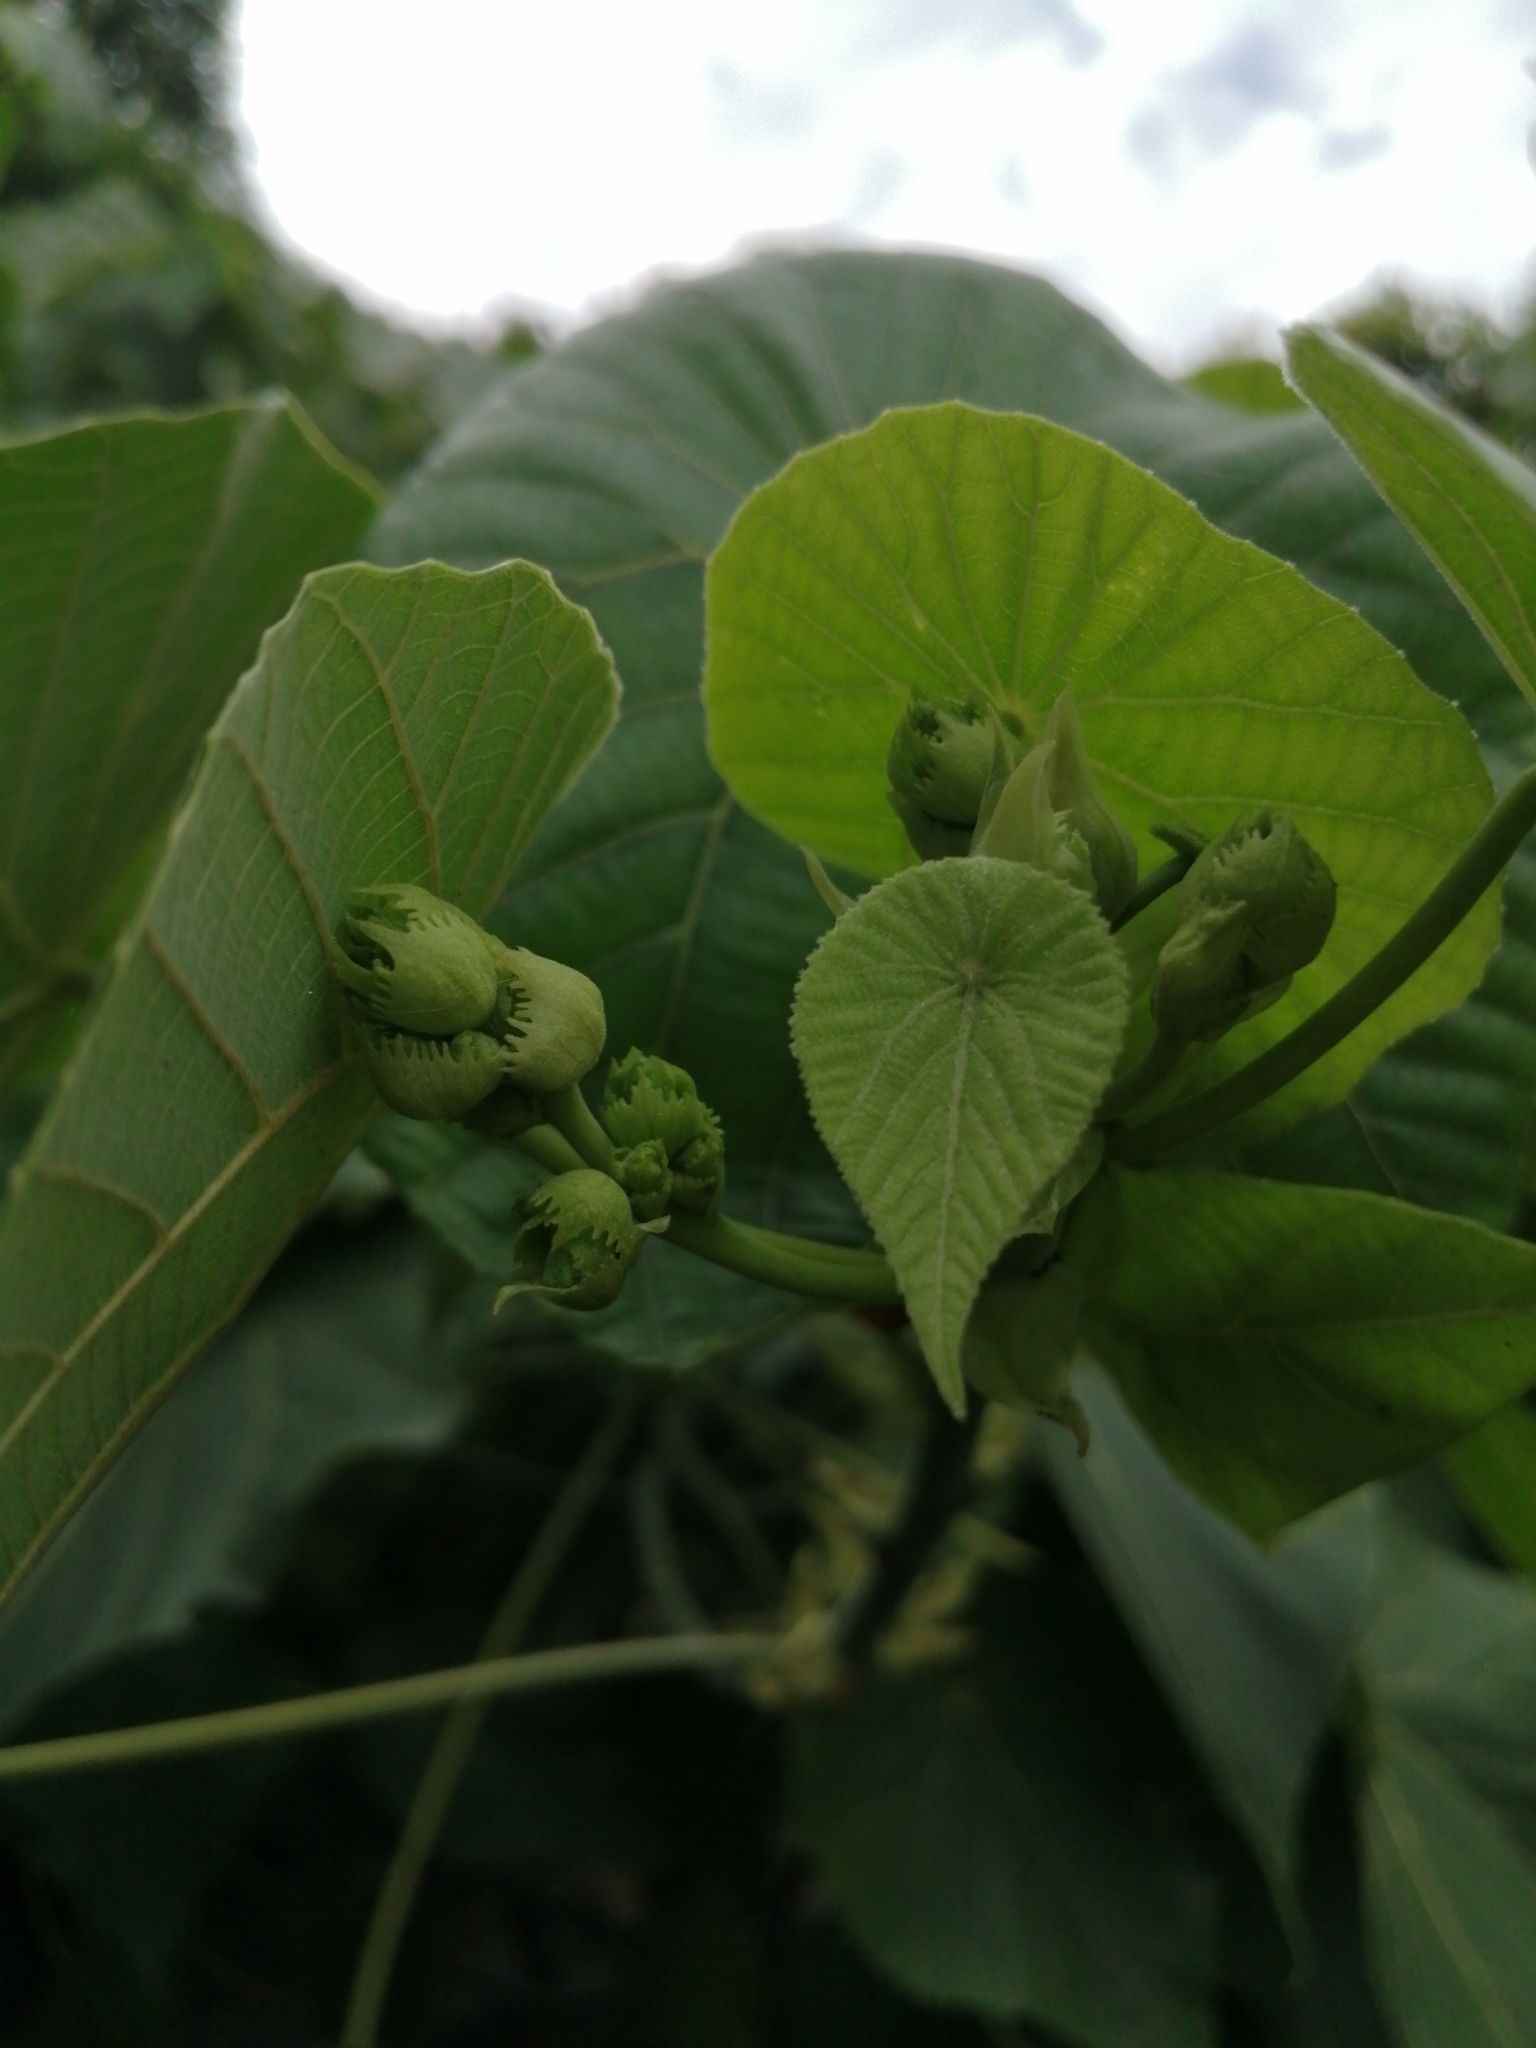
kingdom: Plantae
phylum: Tracheophyta
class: Magnoliopsida
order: Malpighiales
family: Euphorbiaceae
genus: Macaranga
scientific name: Macaranga tanarius
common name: Parasol leaf tree
